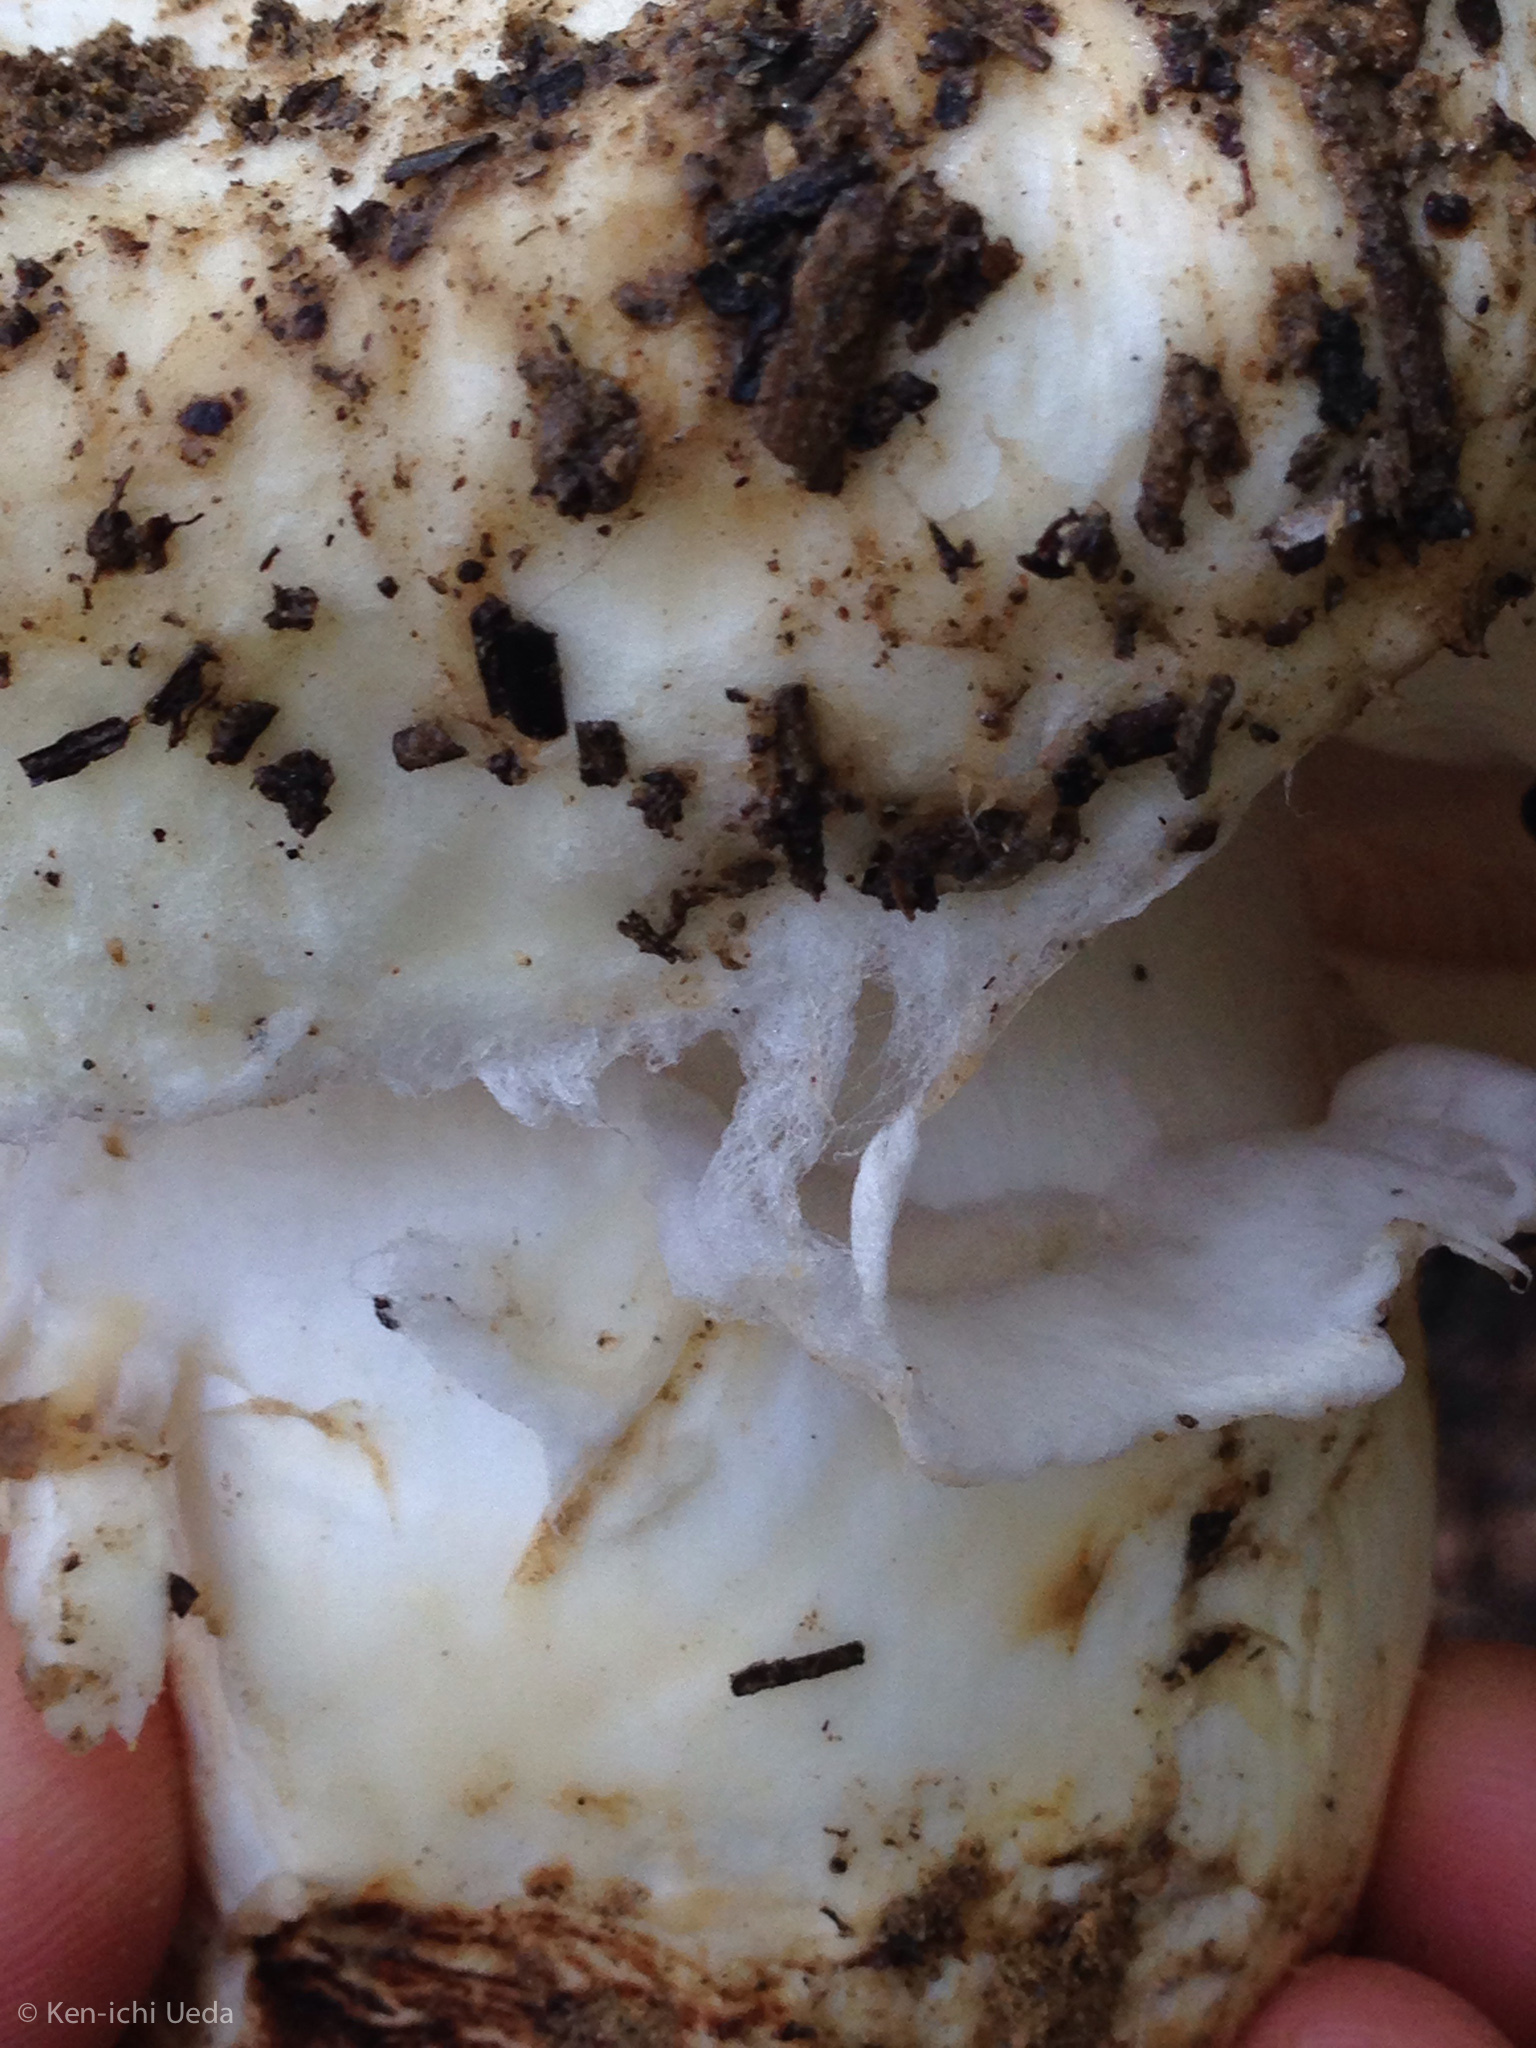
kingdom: Fungi
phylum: Basidiomycota
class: Agaricomycetes
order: Agaricales
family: Tricholomataceae
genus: Tricholoma
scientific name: Tricholoma murrillianum
